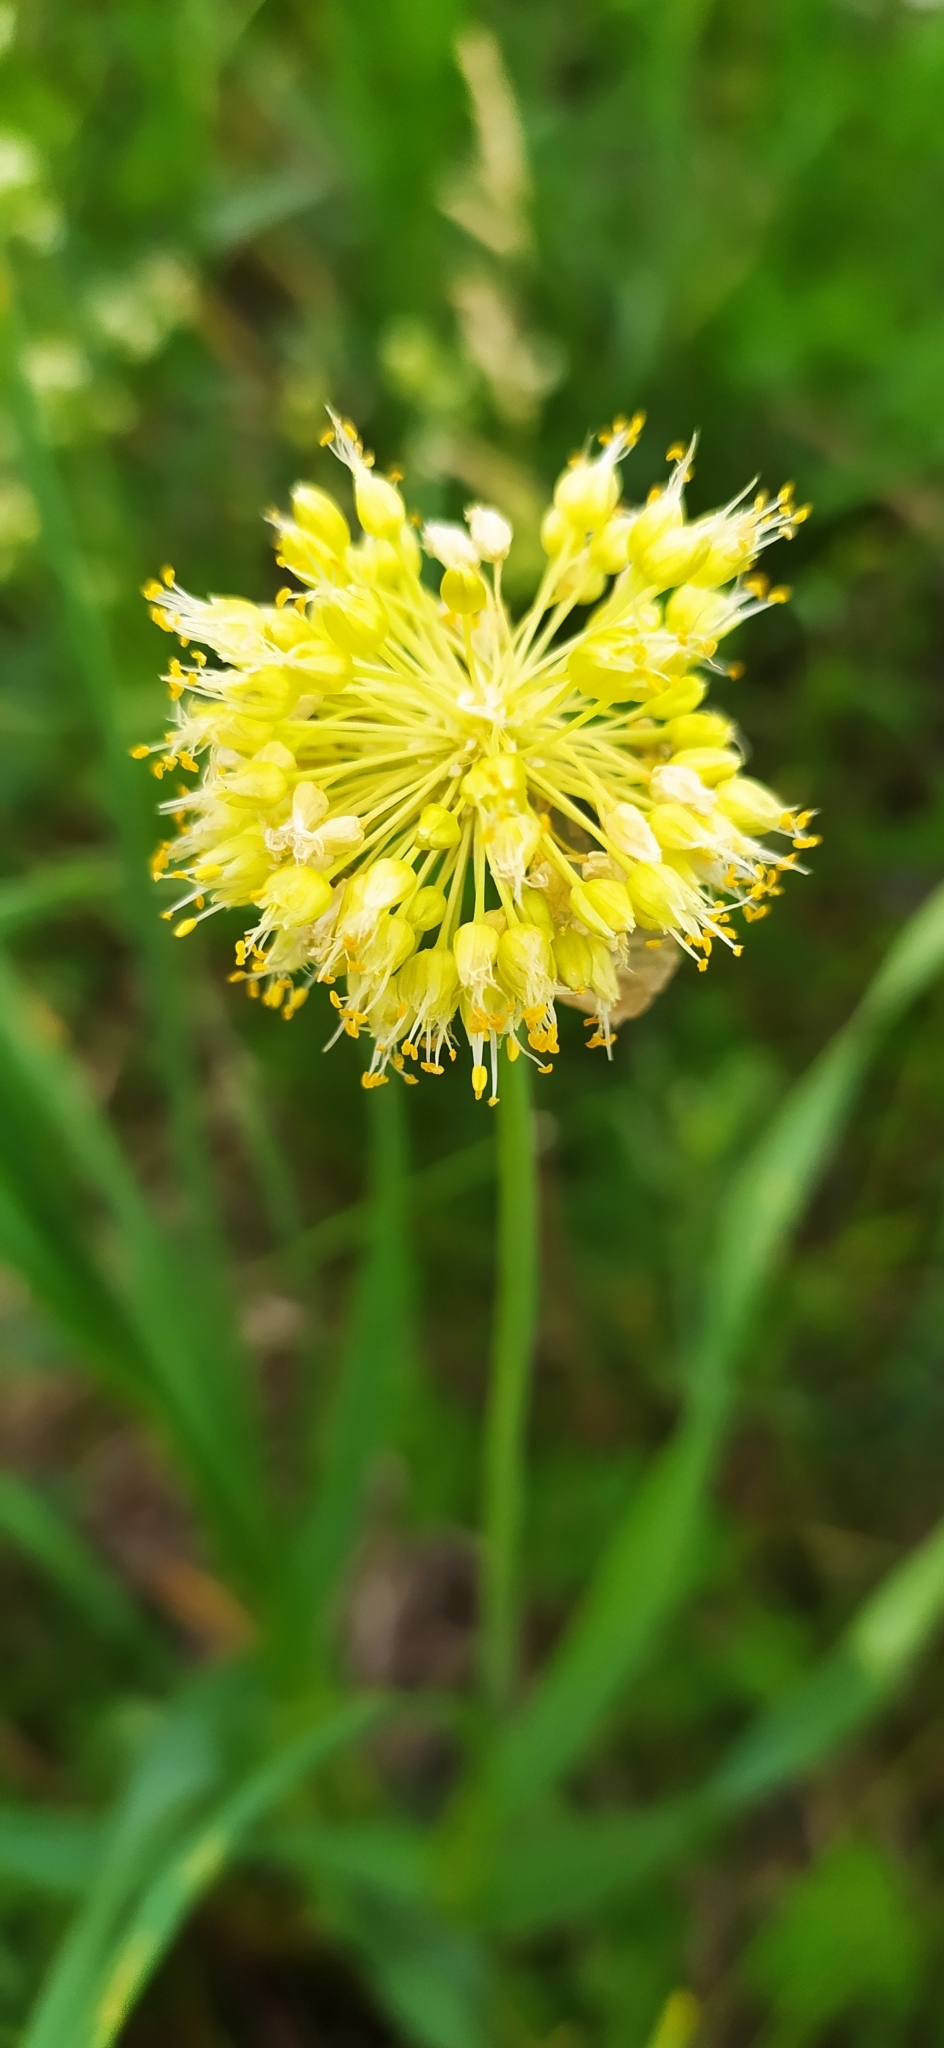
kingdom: Plantae
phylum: Tracheophyta
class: Liliopsida
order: Asparagales
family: Amaryllidaceae
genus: Allium
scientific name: Allium obliquum
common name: Oblique onion
